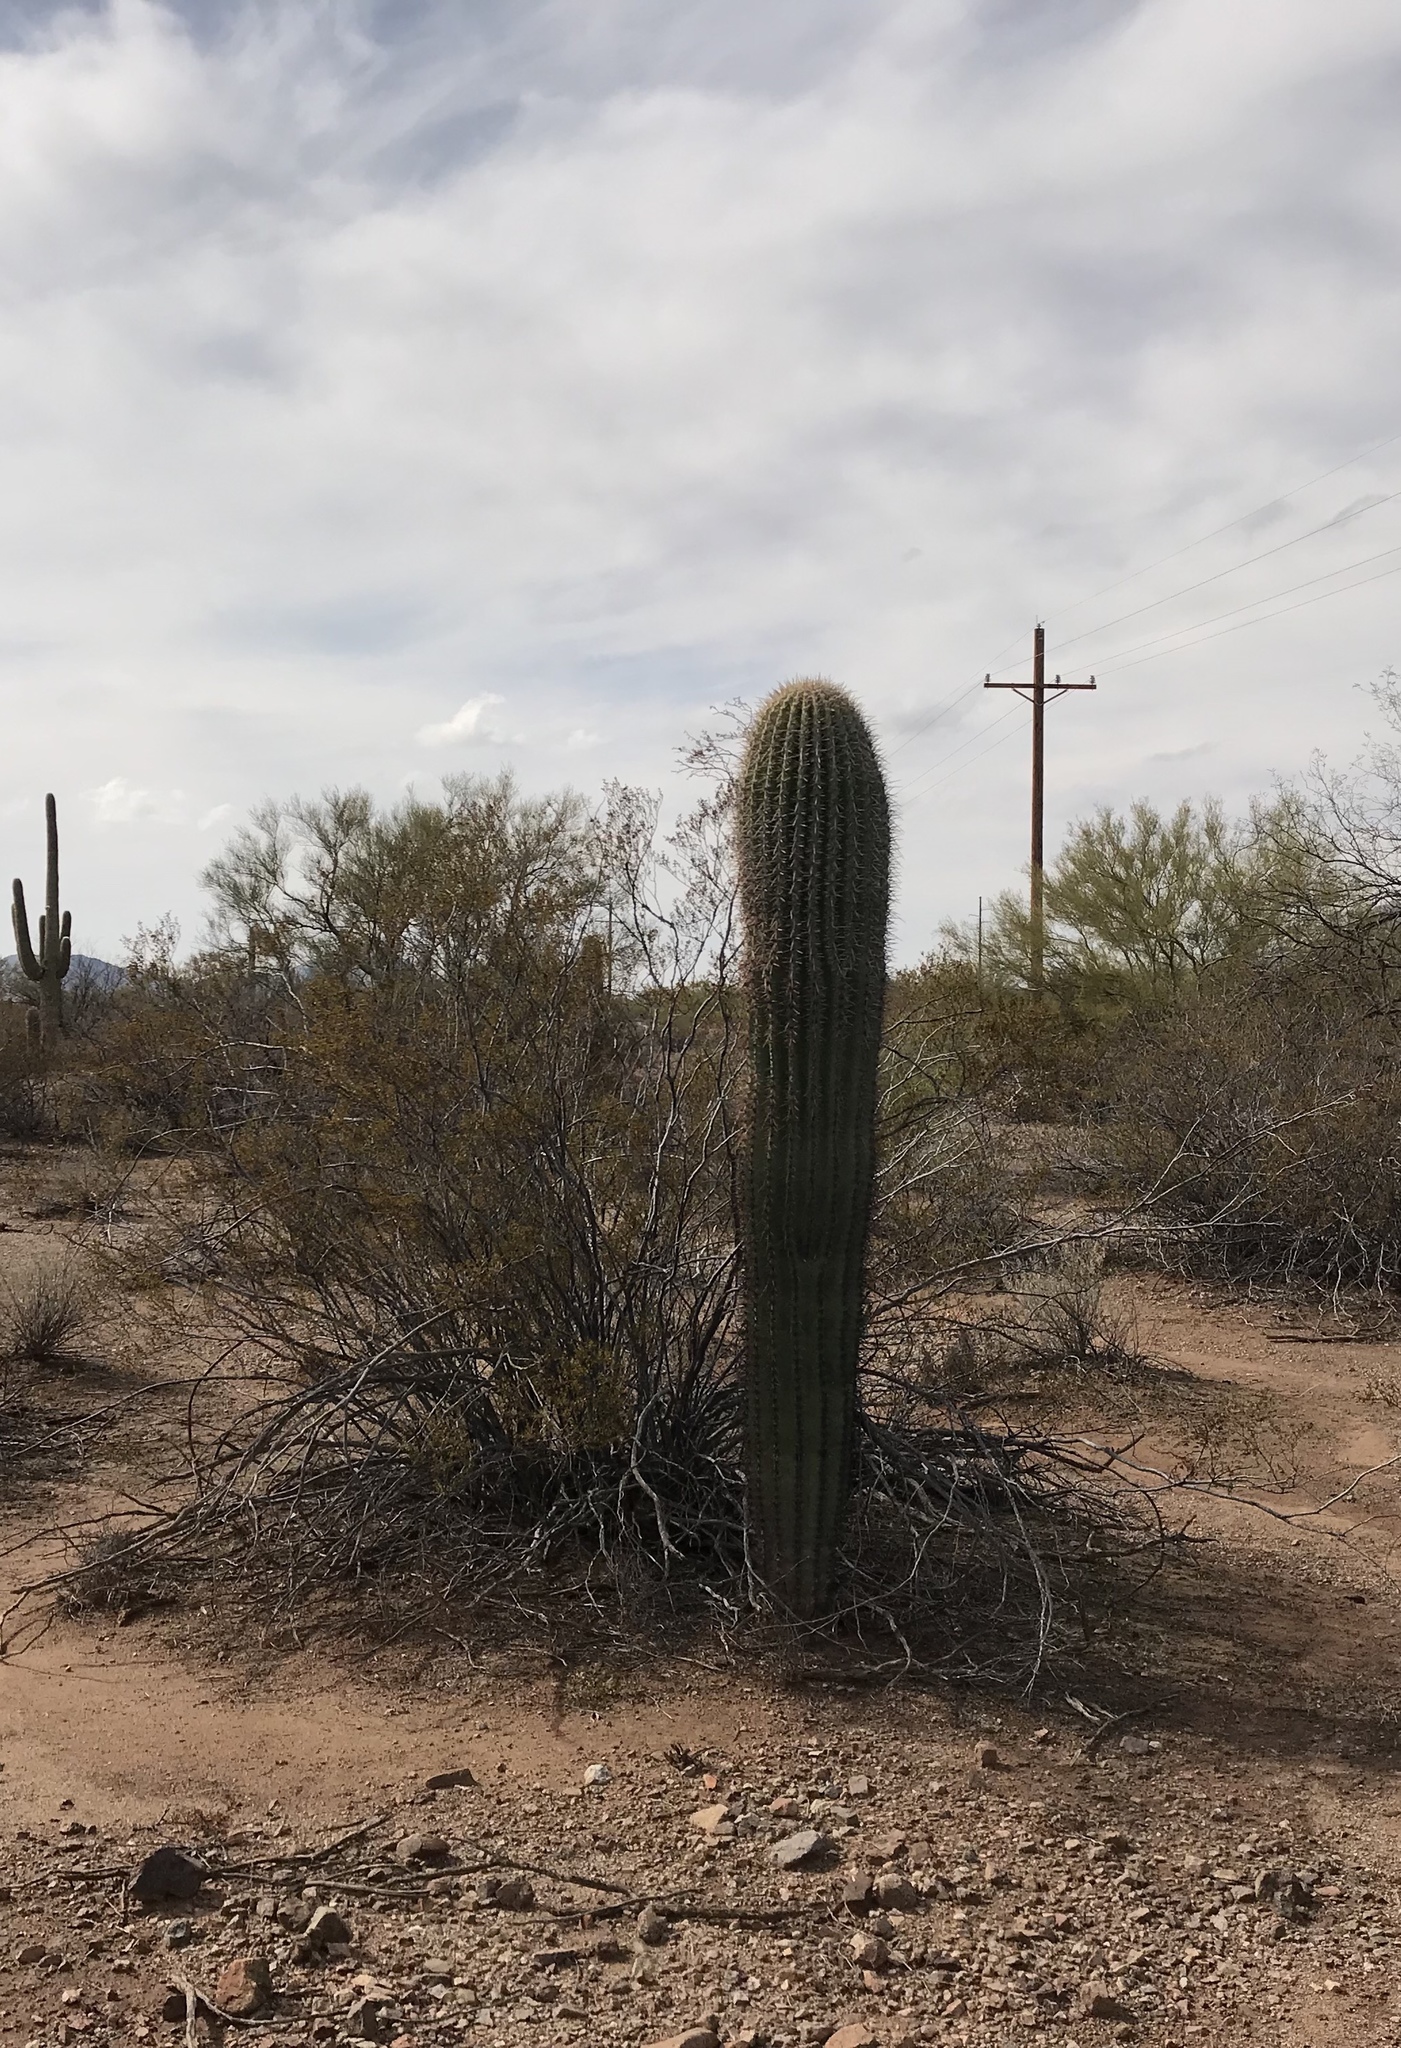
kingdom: Plantae
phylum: Tracheophyta
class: Magnoliopsida
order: Caryophyllales
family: Cactaceae
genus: Carnegiea
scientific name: Carnegiea gigantea
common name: Saguaro
